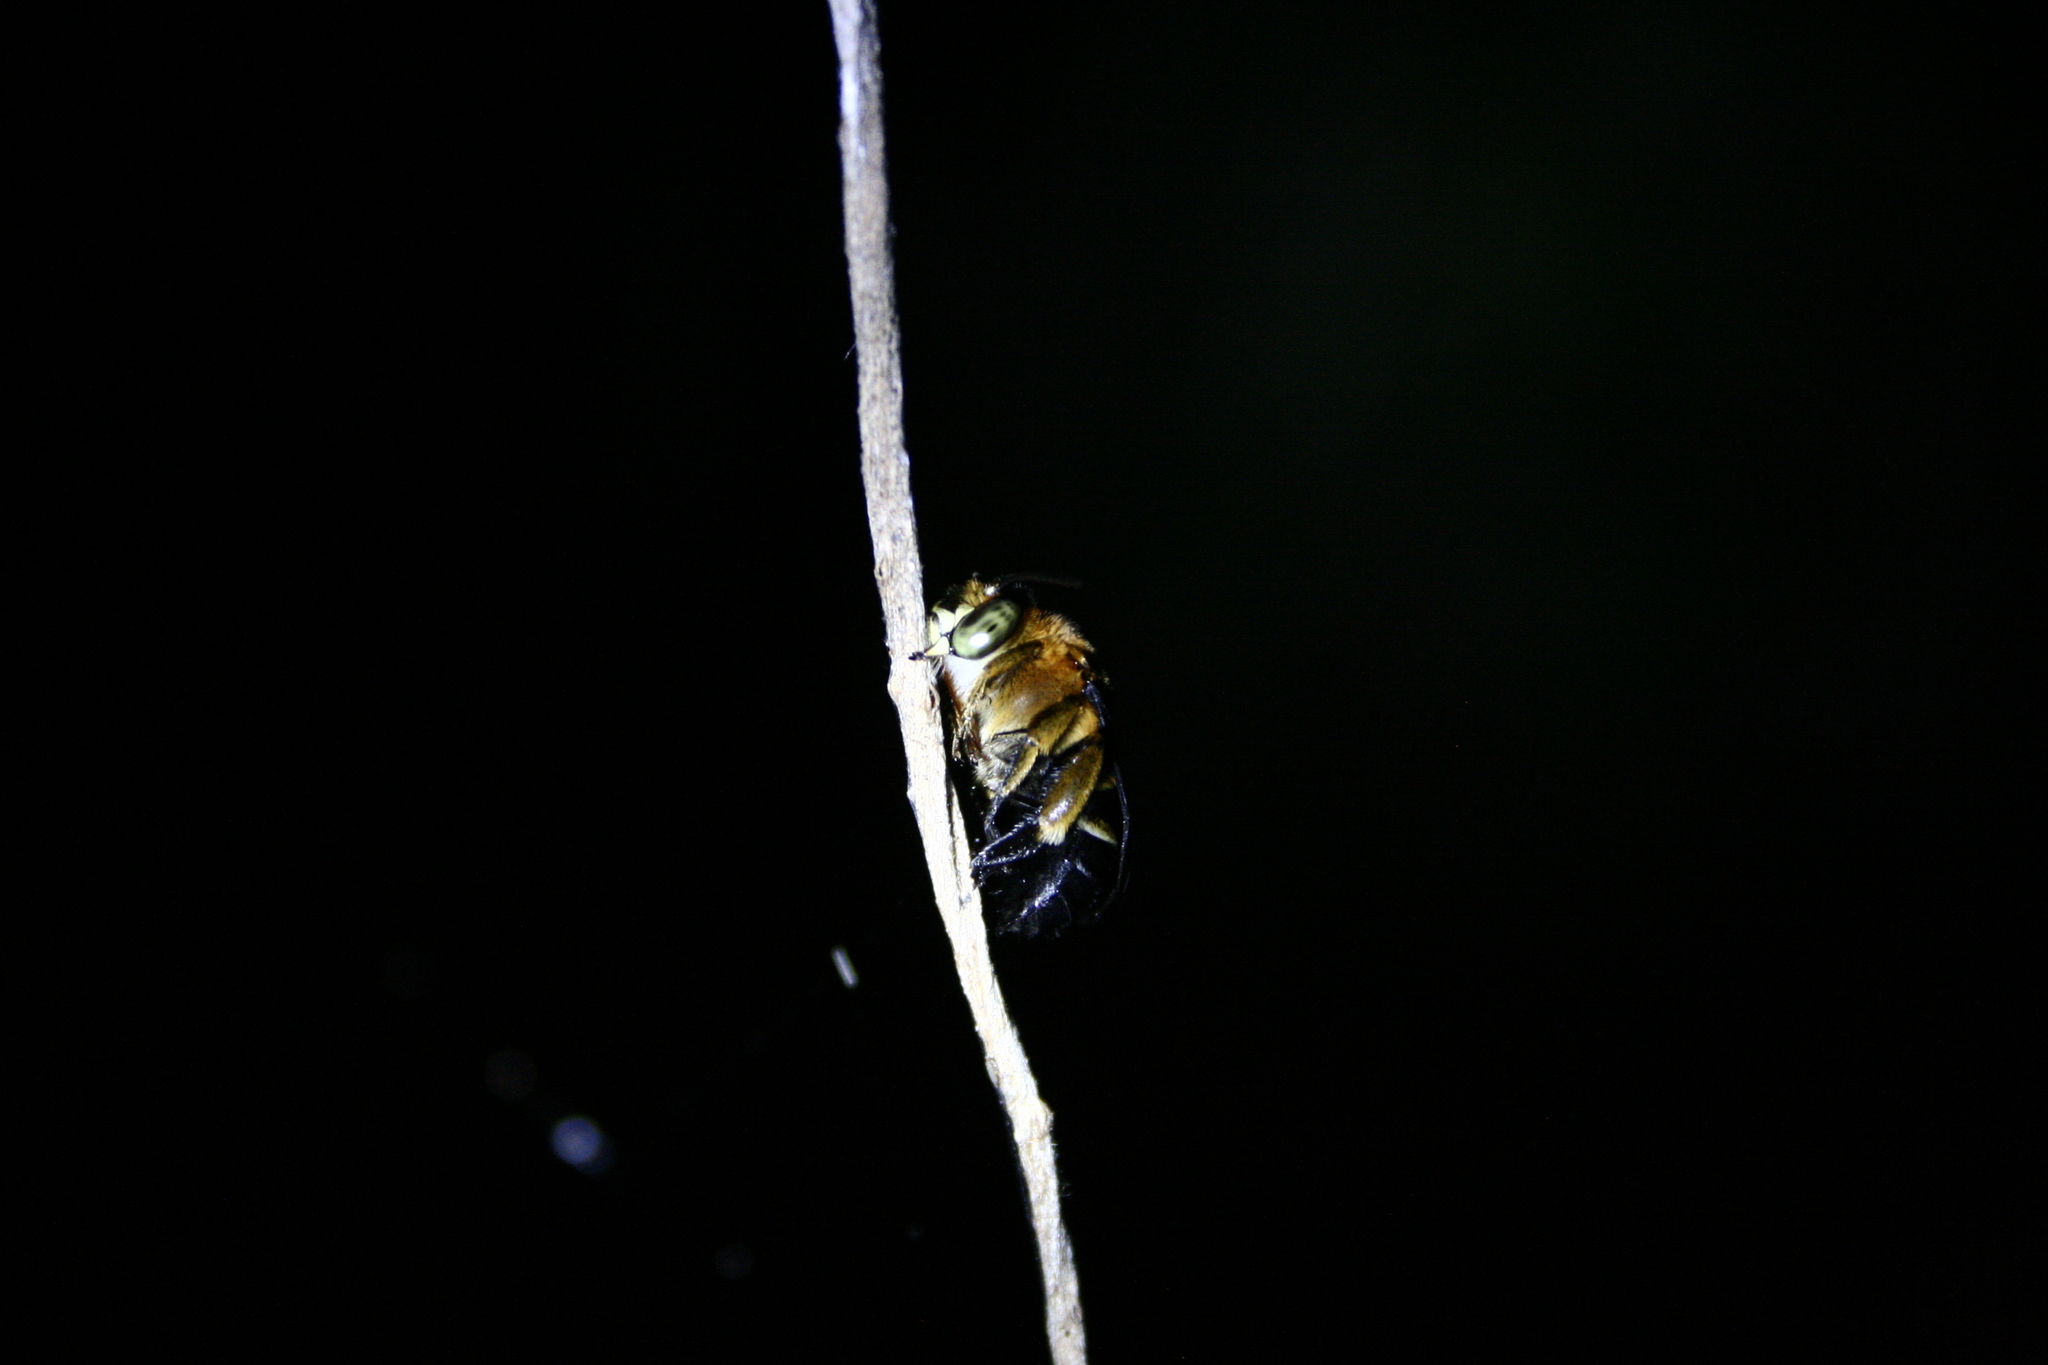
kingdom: Animalia
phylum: Arthropoda
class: Insecta
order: Hymenoptera
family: Apidae
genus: Amegilla
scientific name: Amegilla urens
